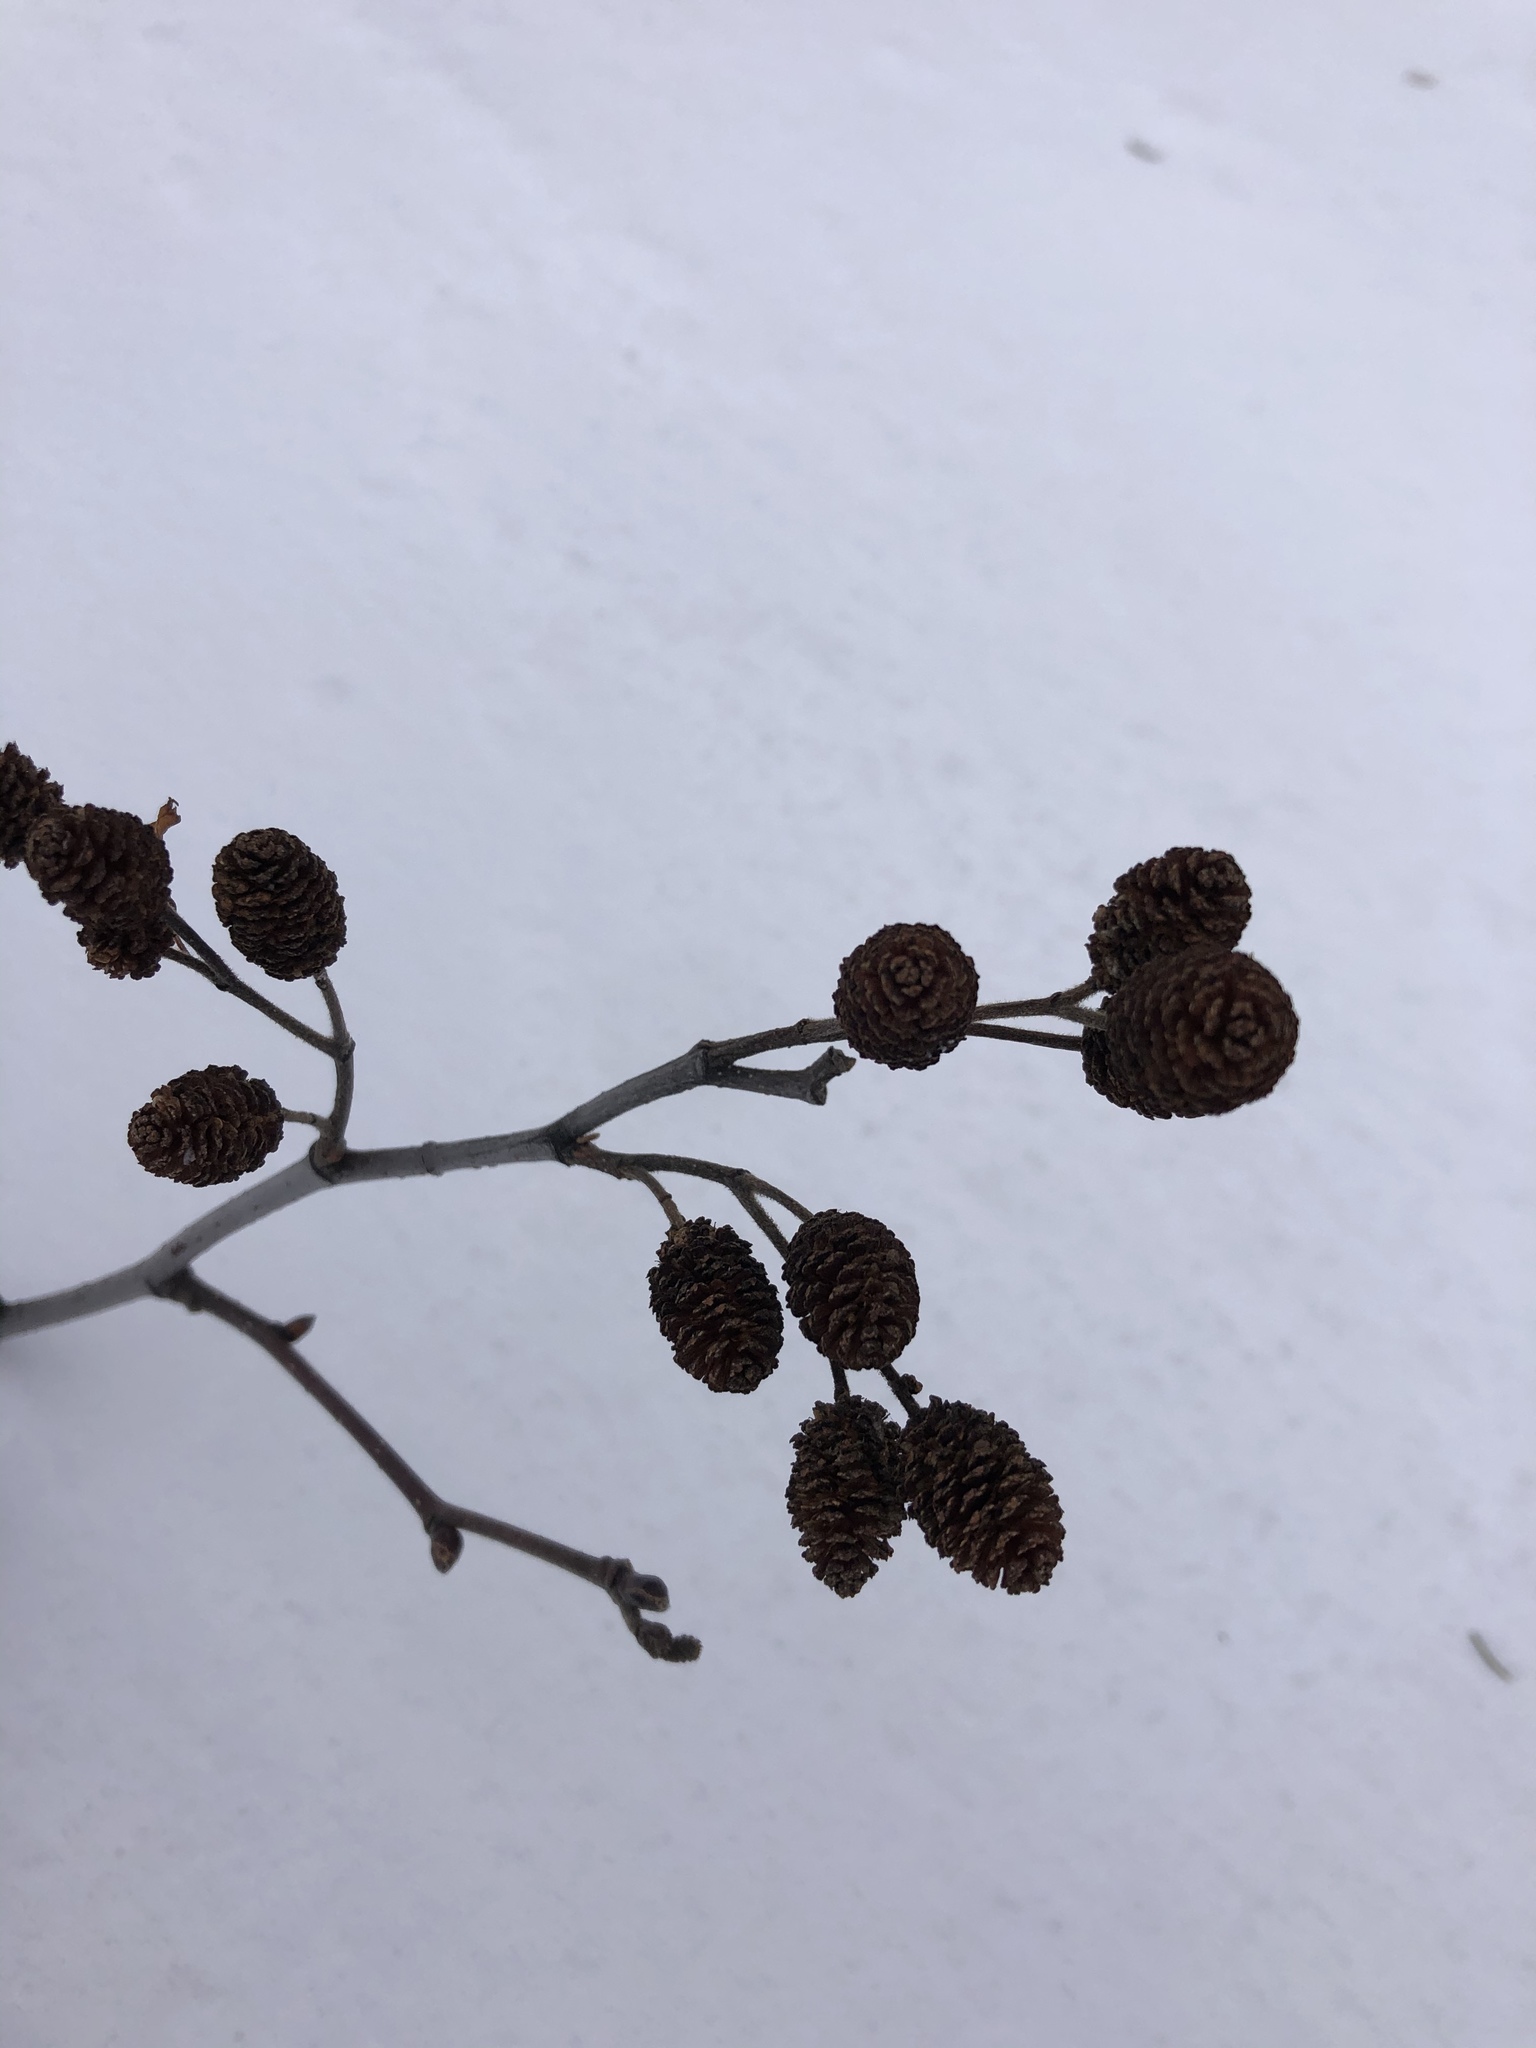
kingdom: Plantae
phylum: Tracheophyta
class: Magnoliopsida
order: Fagales
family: Betulaceae
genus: Alnus
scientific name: Alnus alnobetula
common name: Green alder
